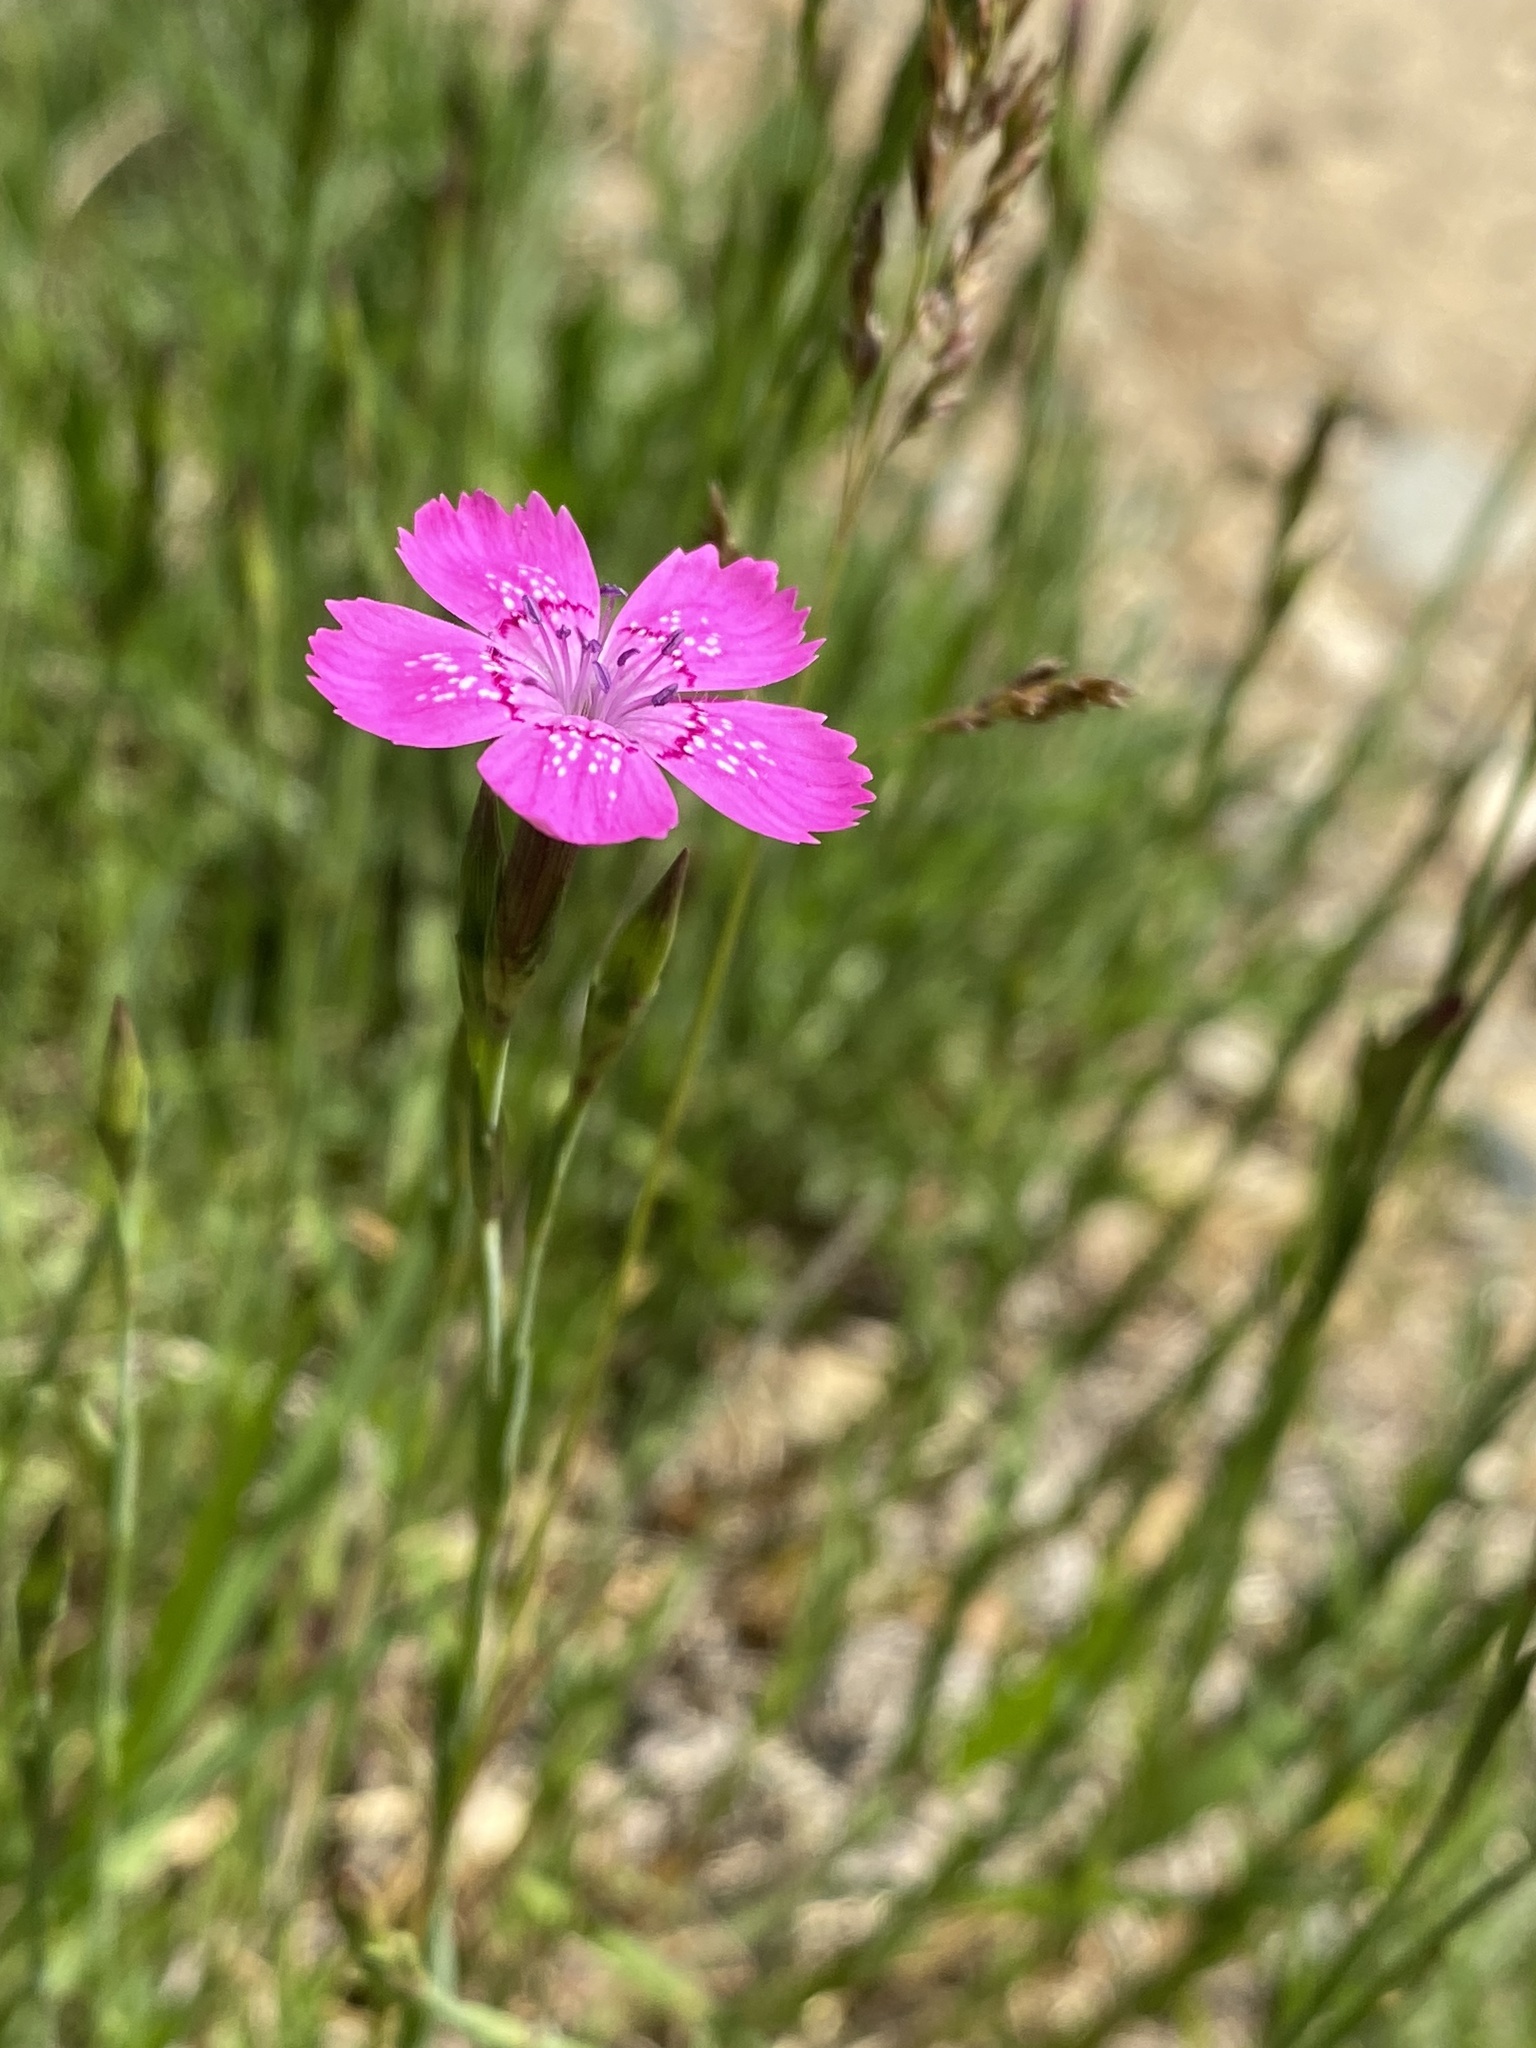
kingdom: Plantae
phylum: Tracheophyta
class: Magnoliopsida
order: Caryophyllales
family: Caryophyllaceae
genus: Dianthus
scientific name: Dianthus deltoides
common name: Maiden pink
